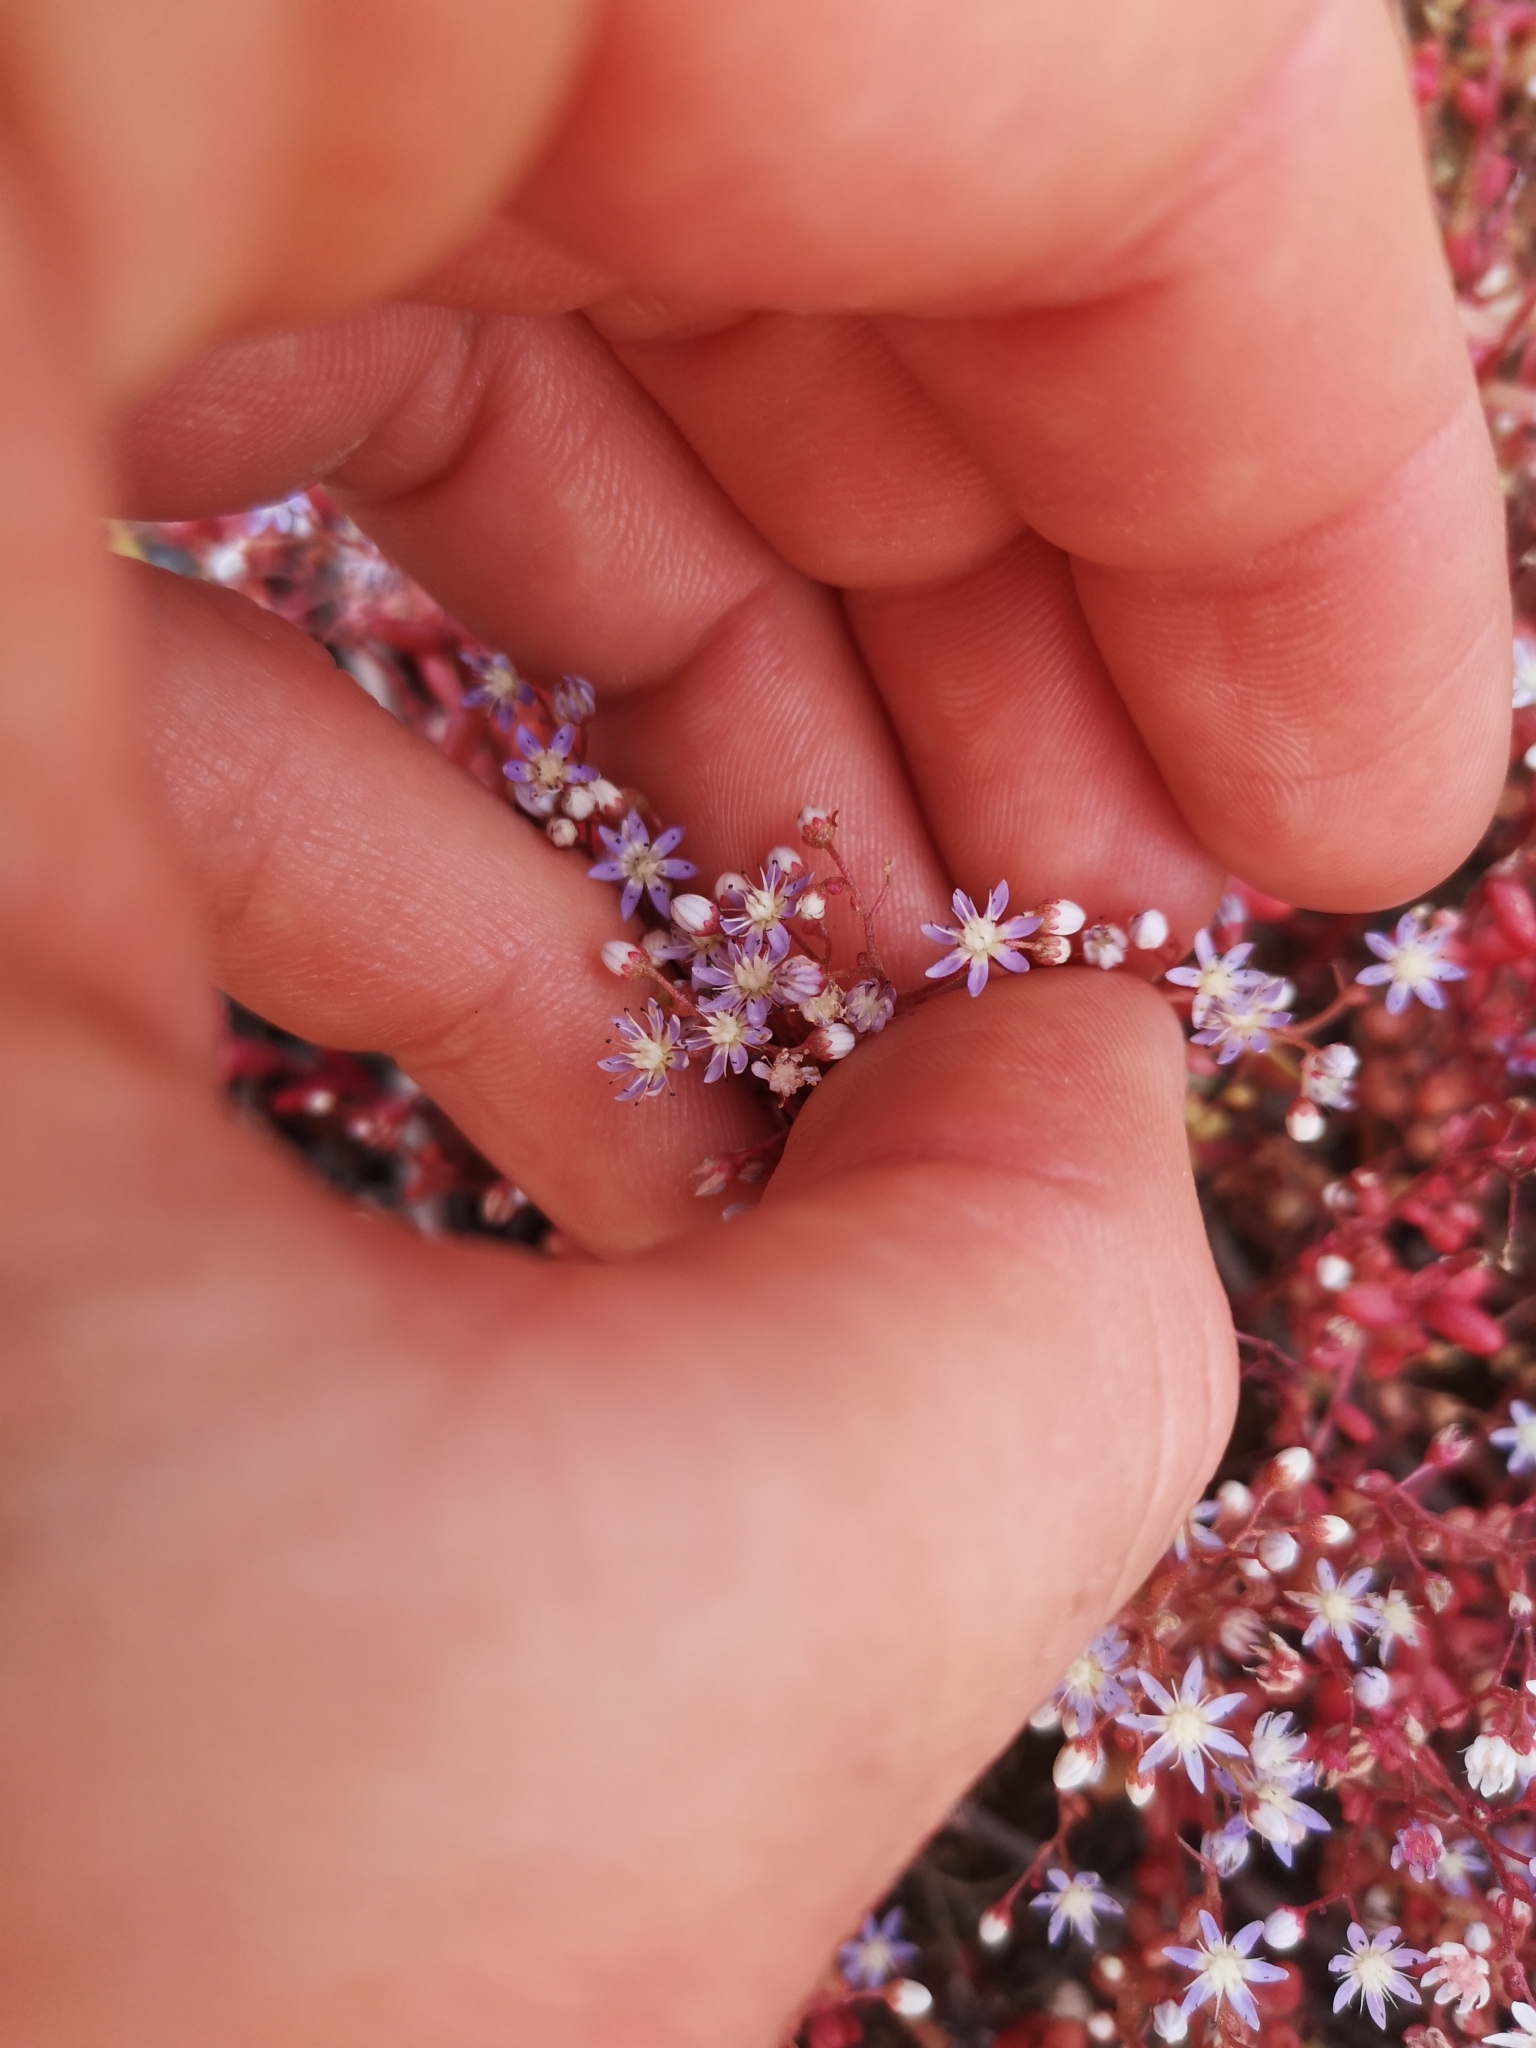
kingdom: Plantae
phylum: Tracheophyta
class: Magnoliopsida
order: Saxifragales
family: Crassulaceae
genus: Sedum
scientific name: Sedum caeruleum
